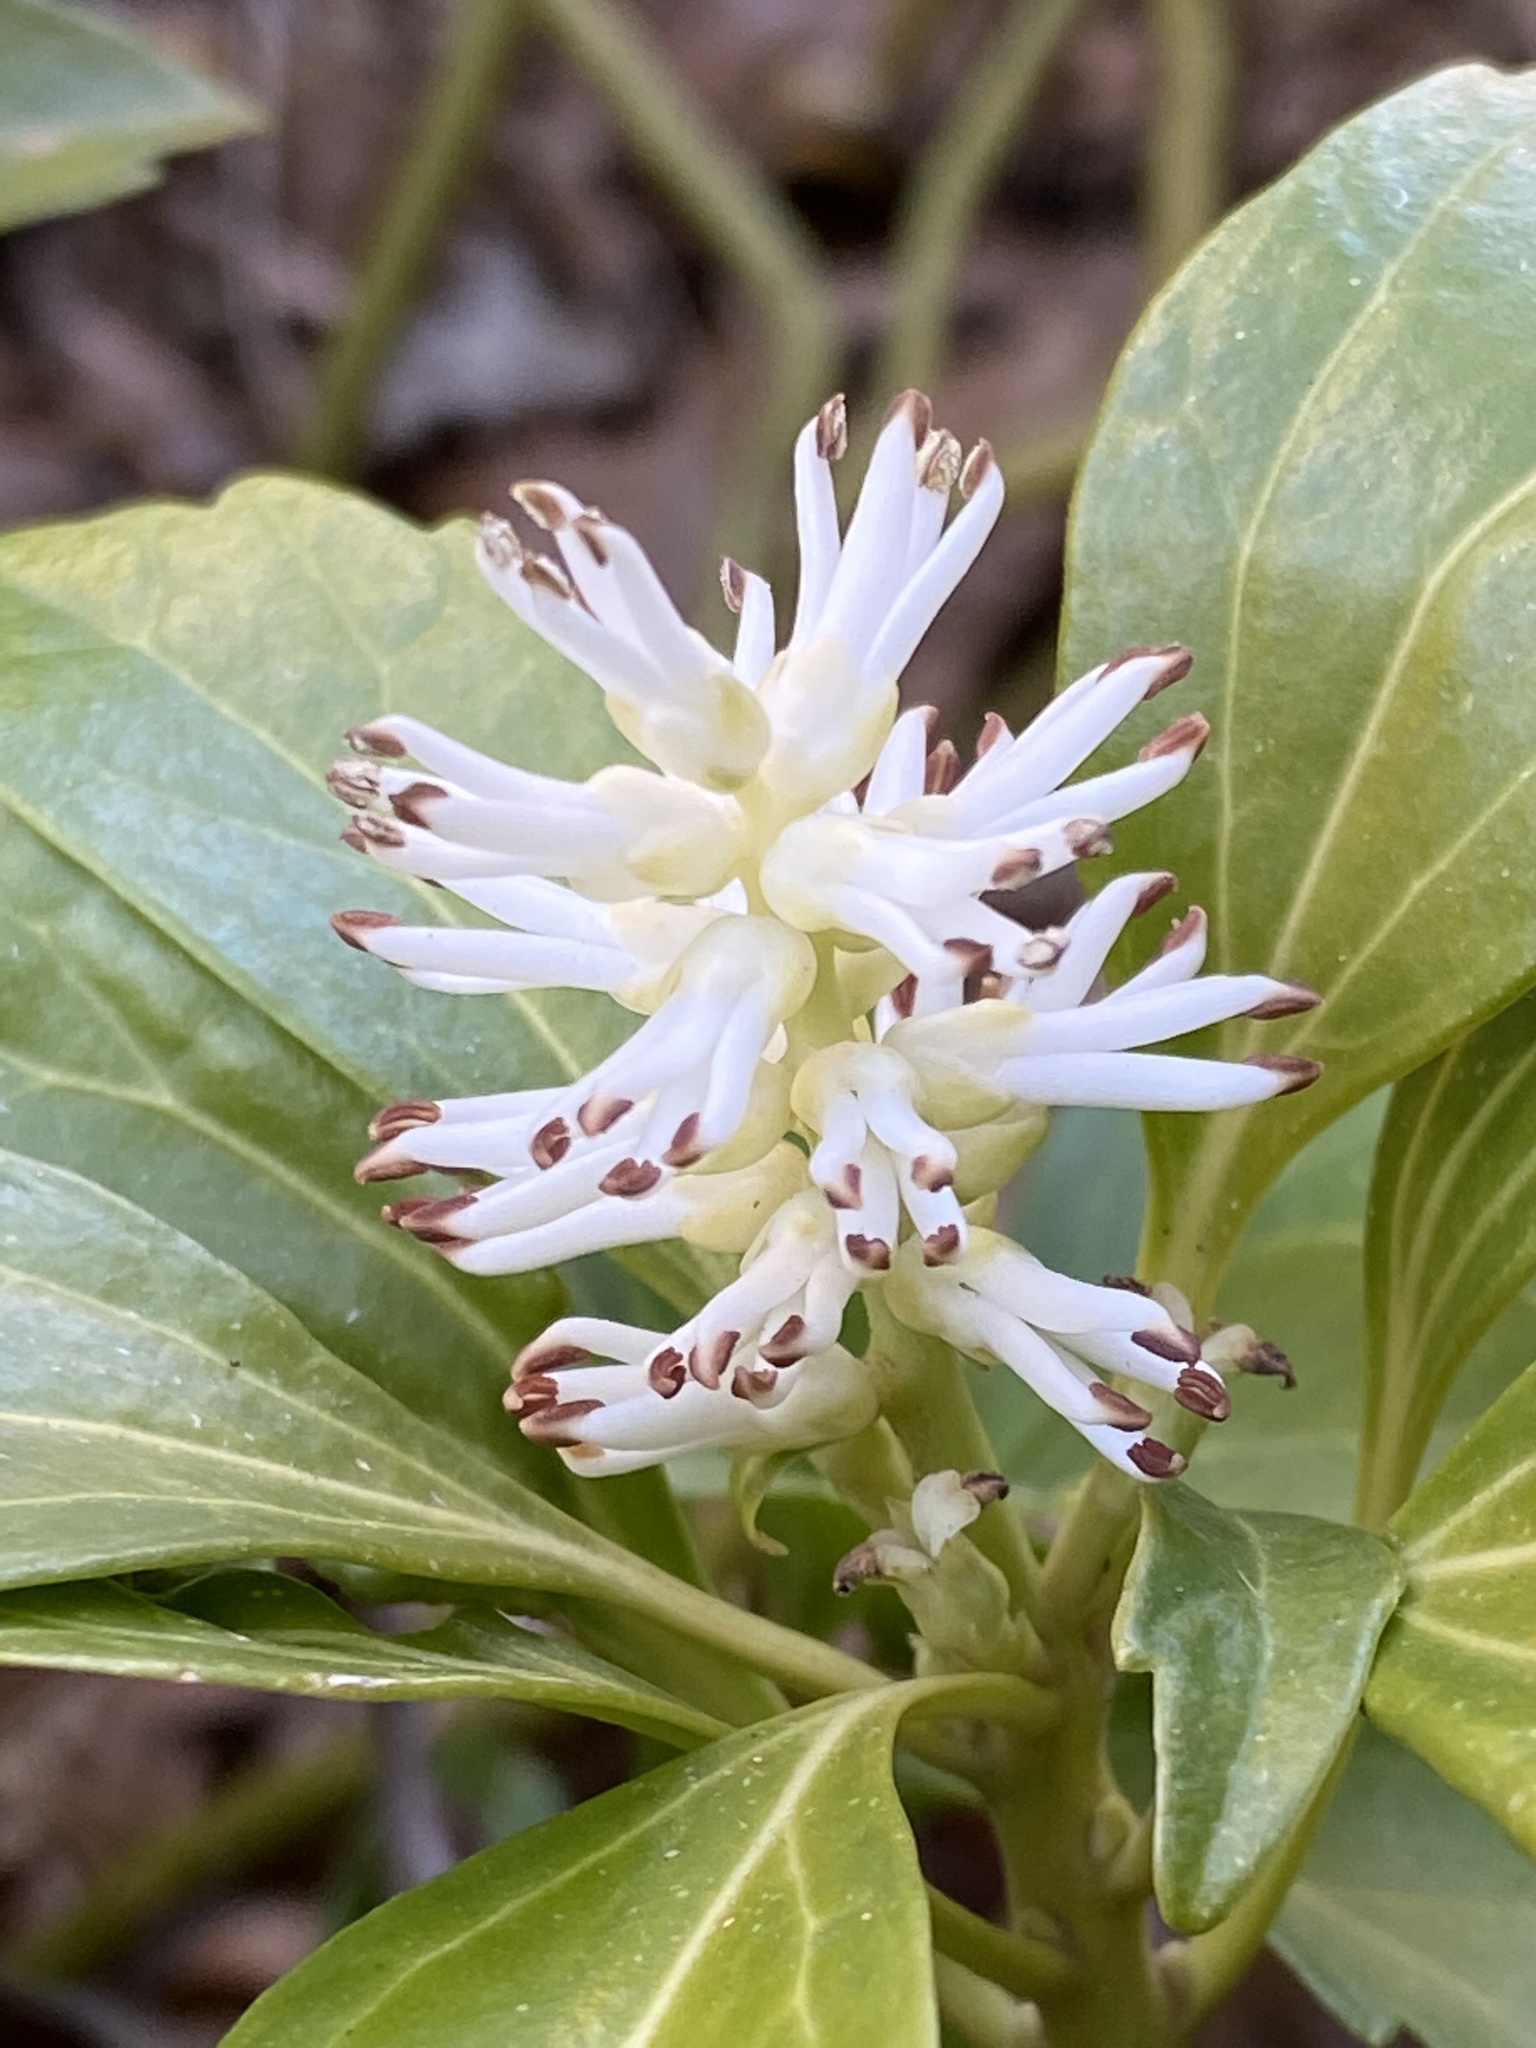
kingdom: Plantae
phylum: Tracheophyta
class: Magnoliopsida
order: Buxales
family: Buxaceae
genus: Pachysandra
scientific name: Pachysandra terminalis
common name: Japanese pachysandra
